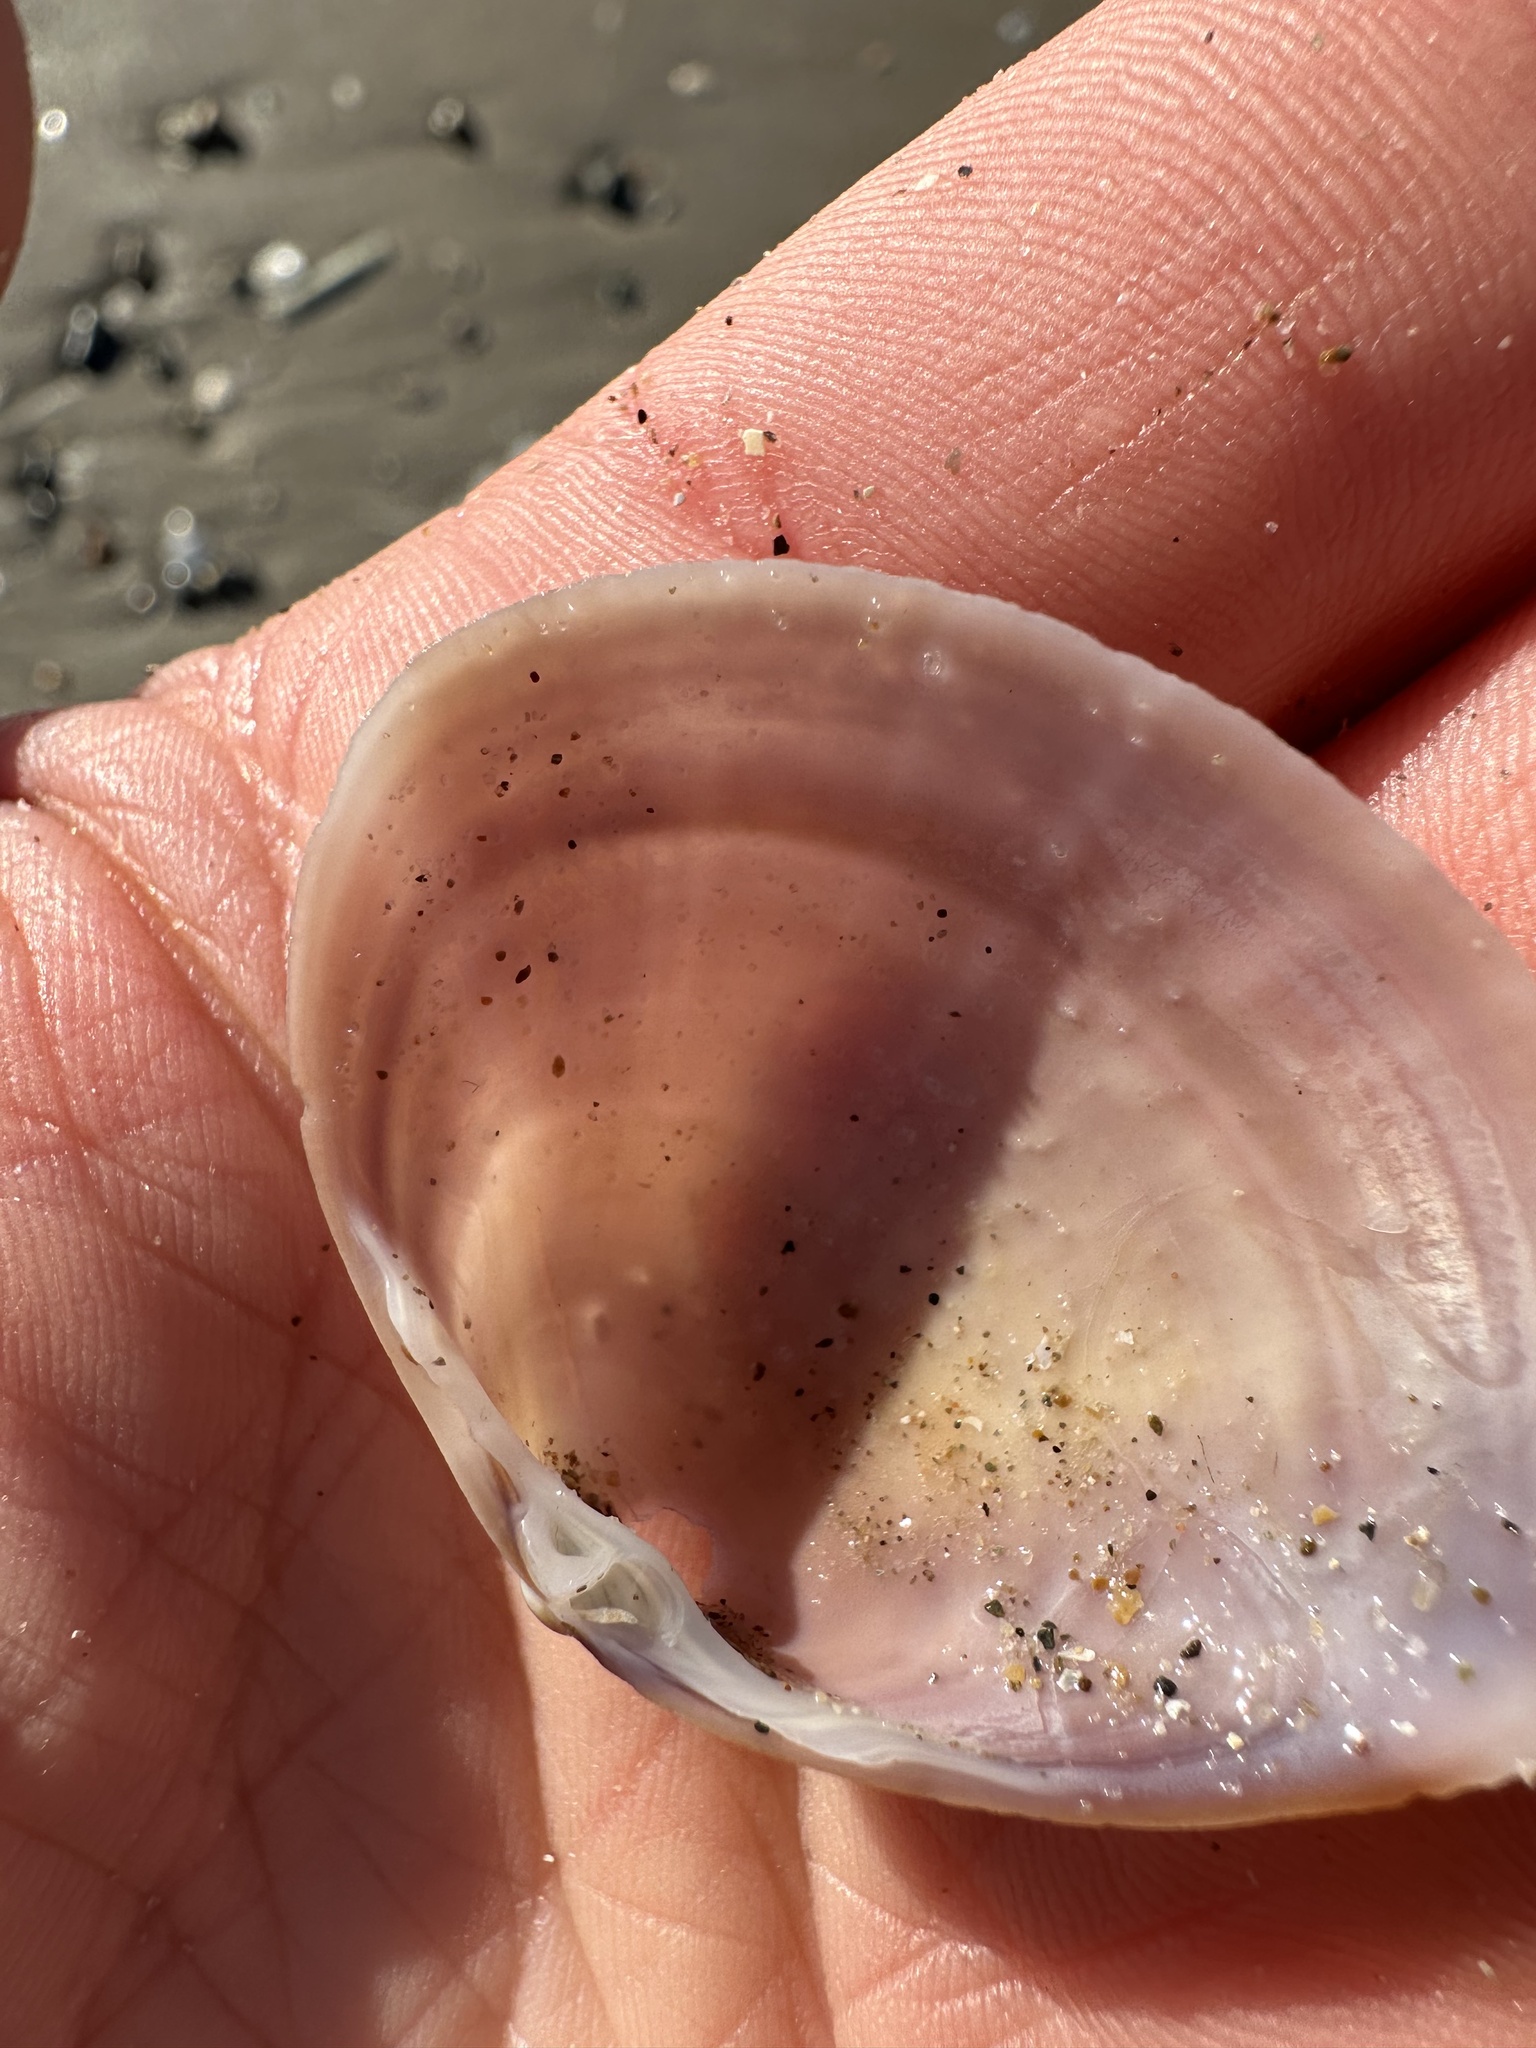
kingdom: Animalia
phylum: Mollusca
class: Bivalvia
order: Venerida
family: Mactridae
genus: Mactra
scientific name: Mactra stultorum
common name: Rayed trough shell
